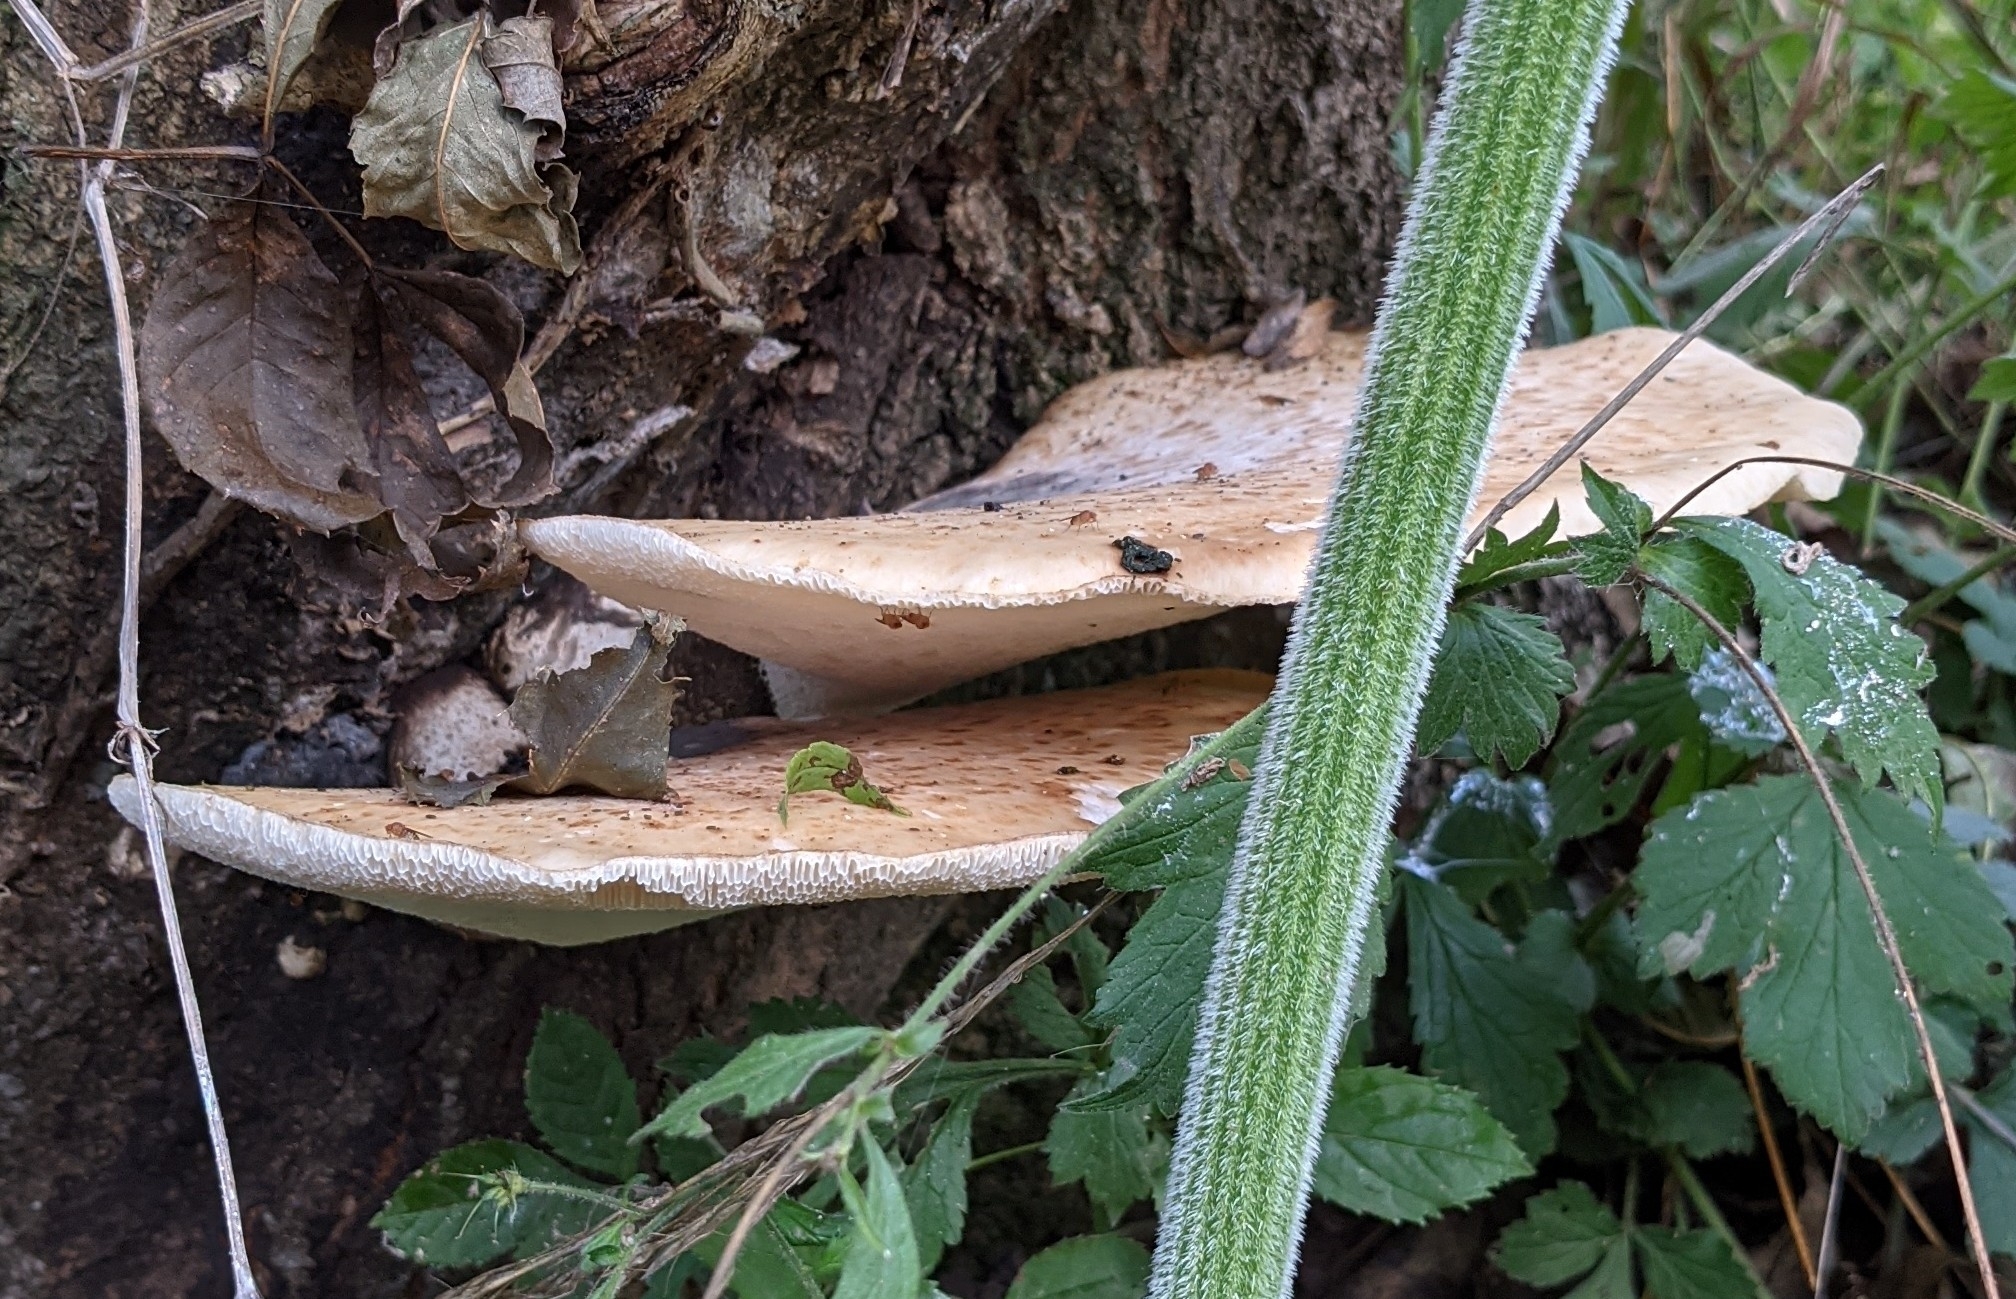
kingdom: Fungi
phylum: Basidiomycota
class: Agaricomycetes
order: Polyporales
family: Polyporaceae
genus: Cerioporus
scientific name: Cerioporus squamosus
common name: Dryad's saddle
